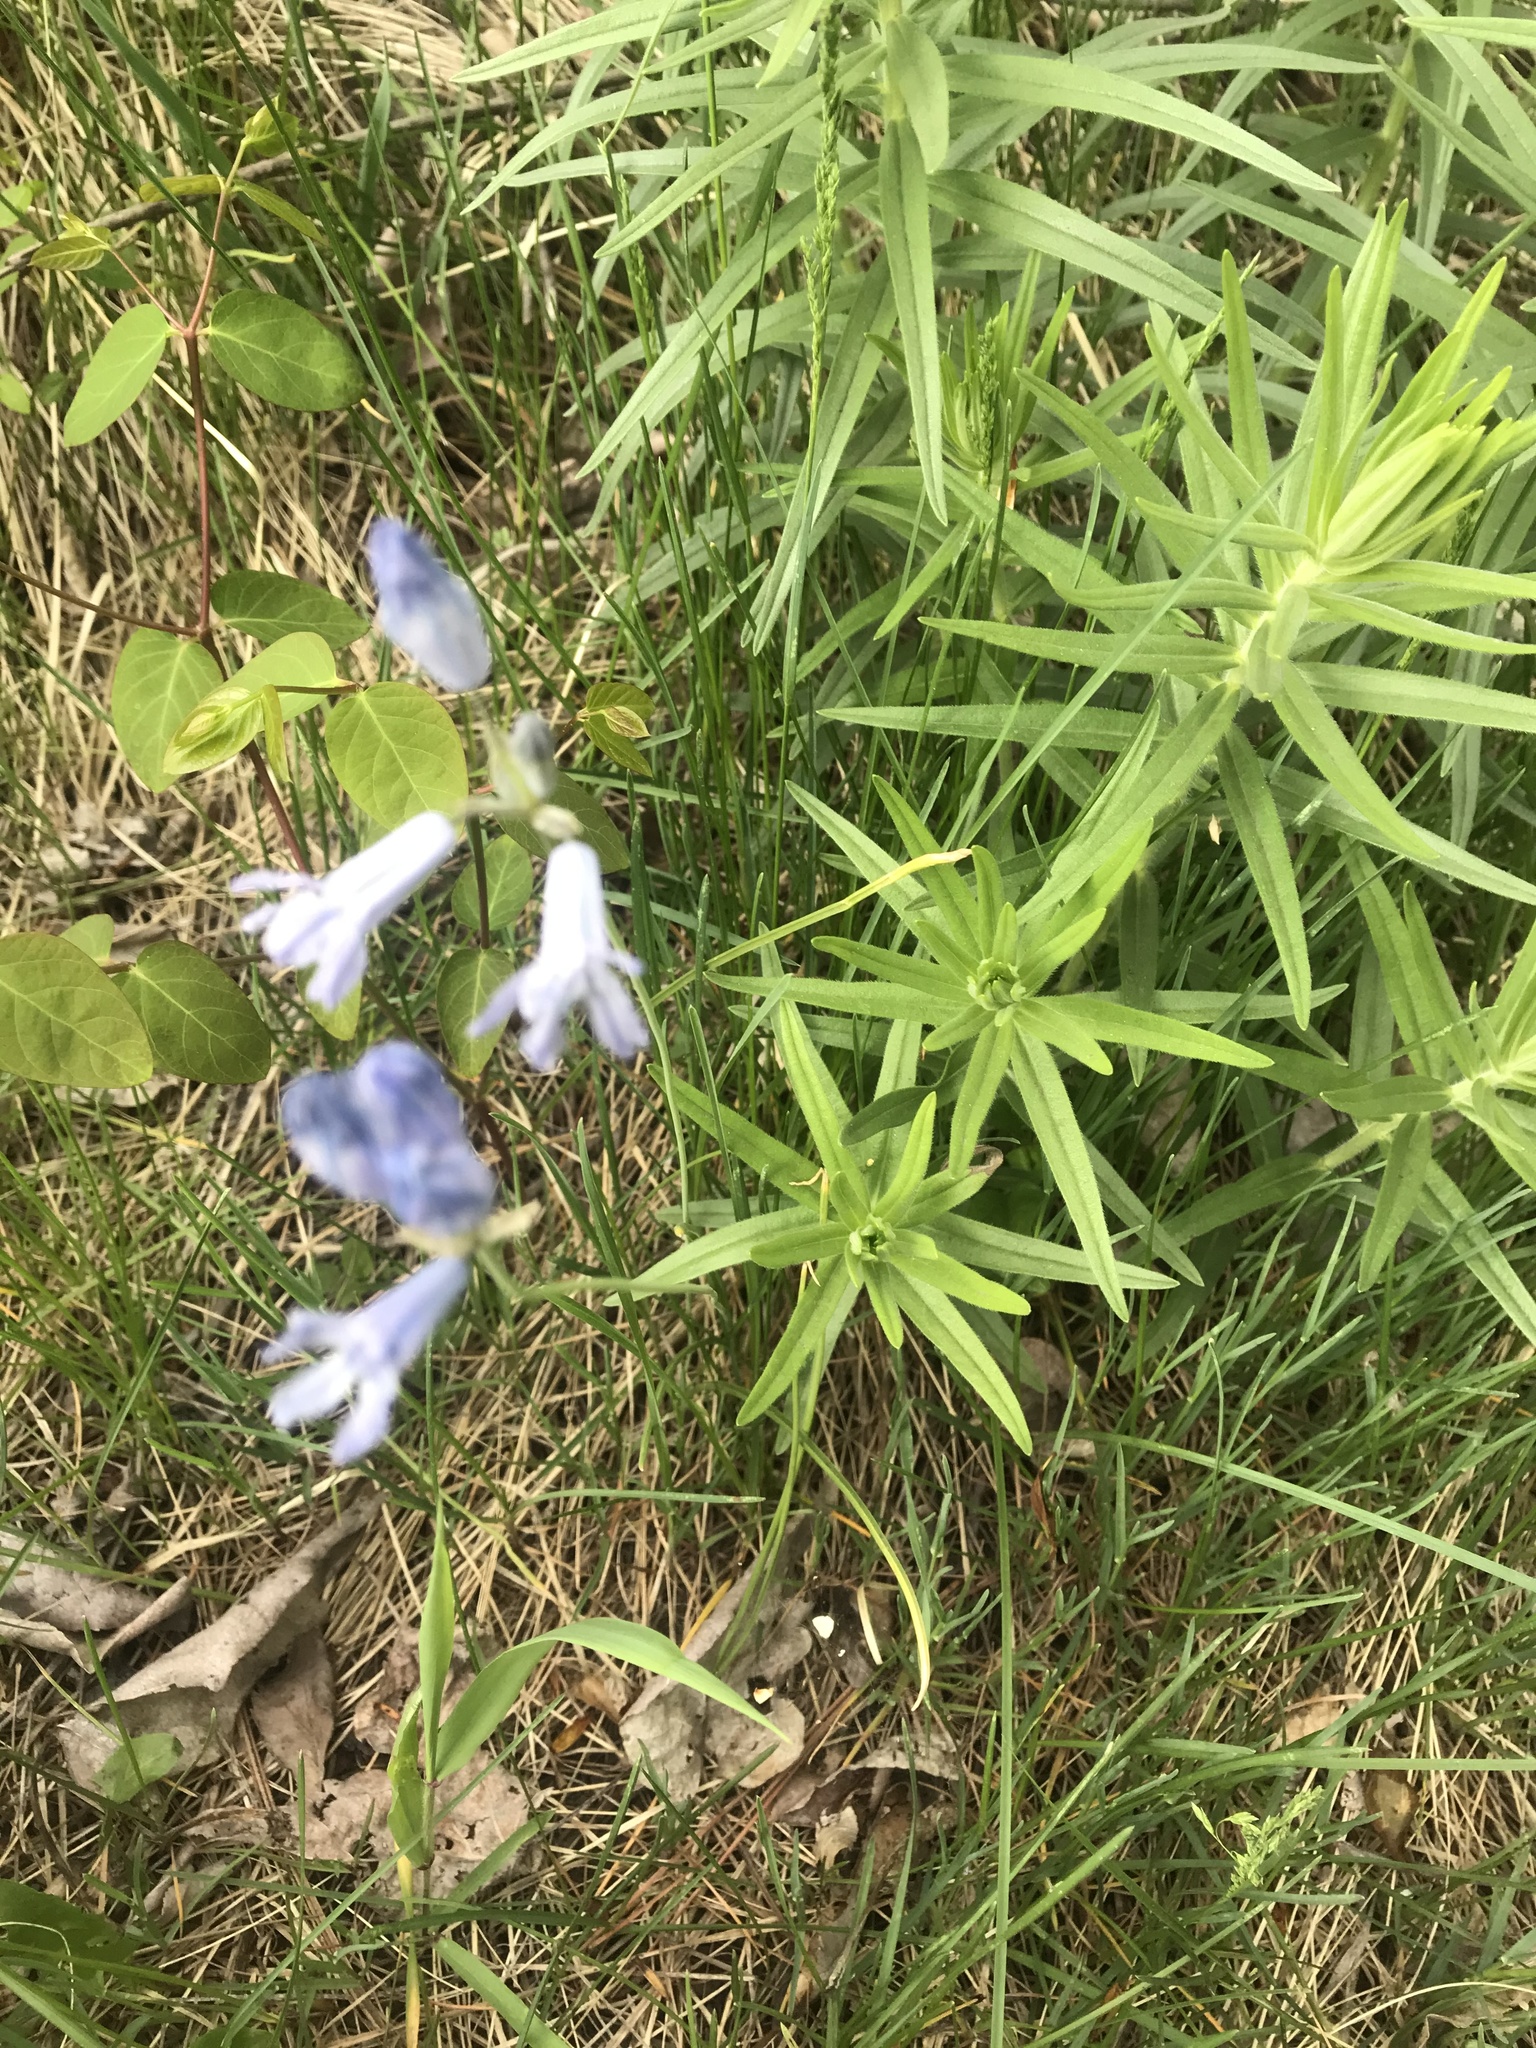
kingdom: Plantae
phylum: Tracheophyta
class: Liliopsida
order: Asparagales
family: Asparagaceae
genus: Triteleia
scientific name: Triteleia grandiflora
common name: Wild hyacinth
